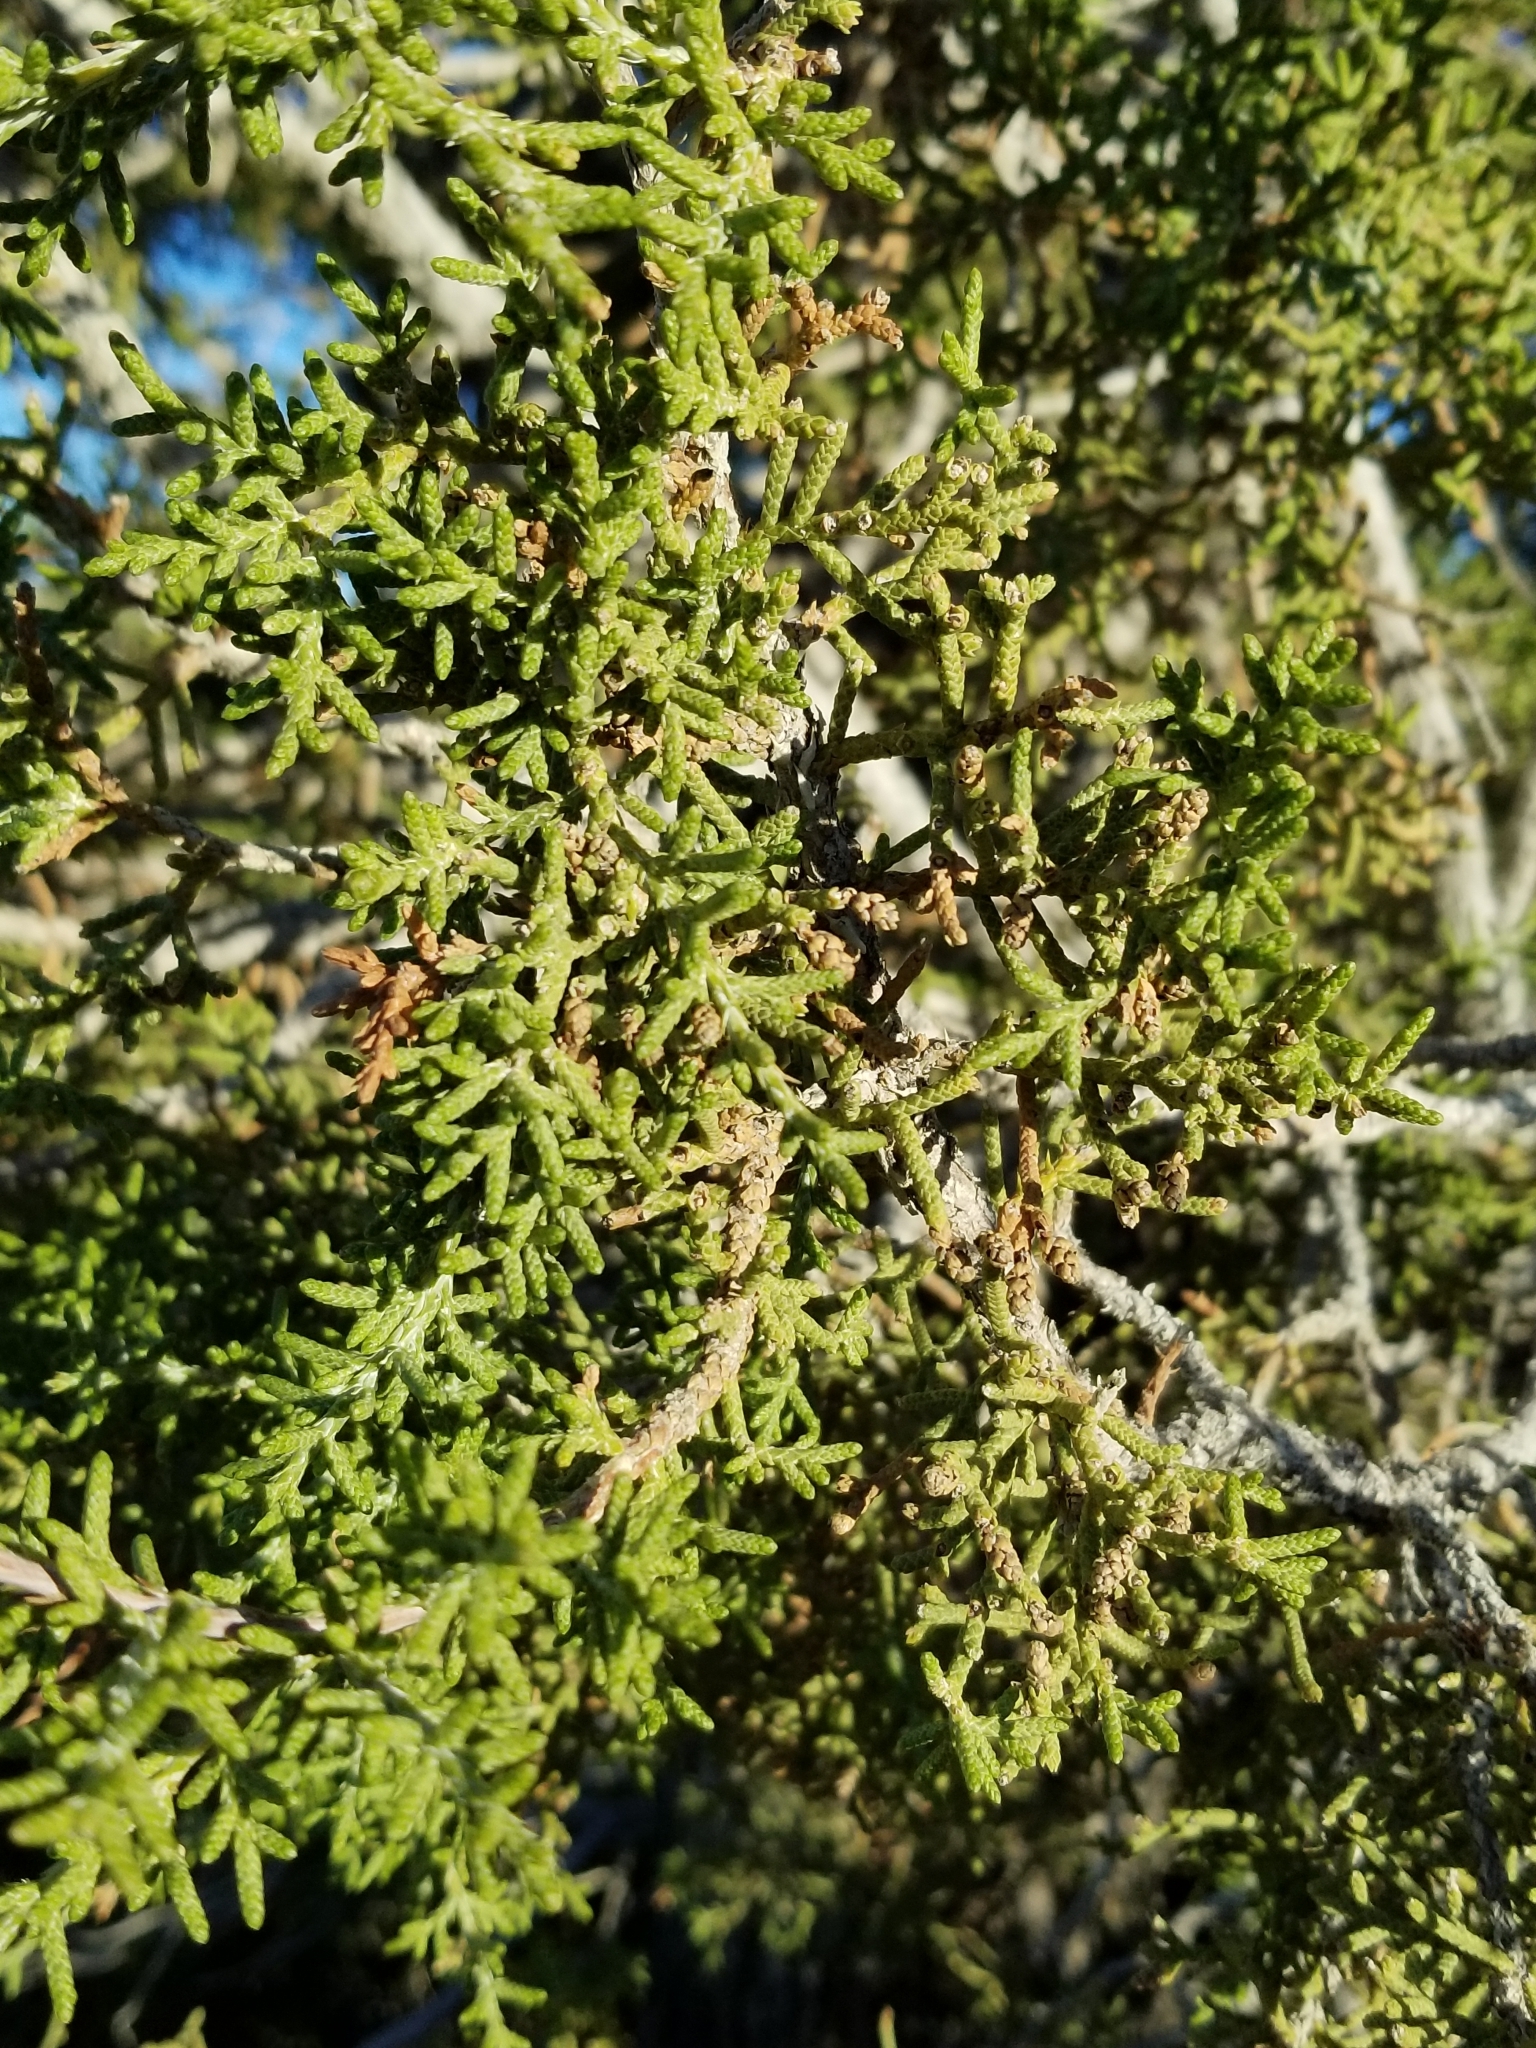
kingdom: Plantae
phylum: Tracheophyta
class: Pinopsida
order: Pinales
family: Cupressaceae
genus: Juniperus
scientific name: Juniperus californica
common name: California juniper
